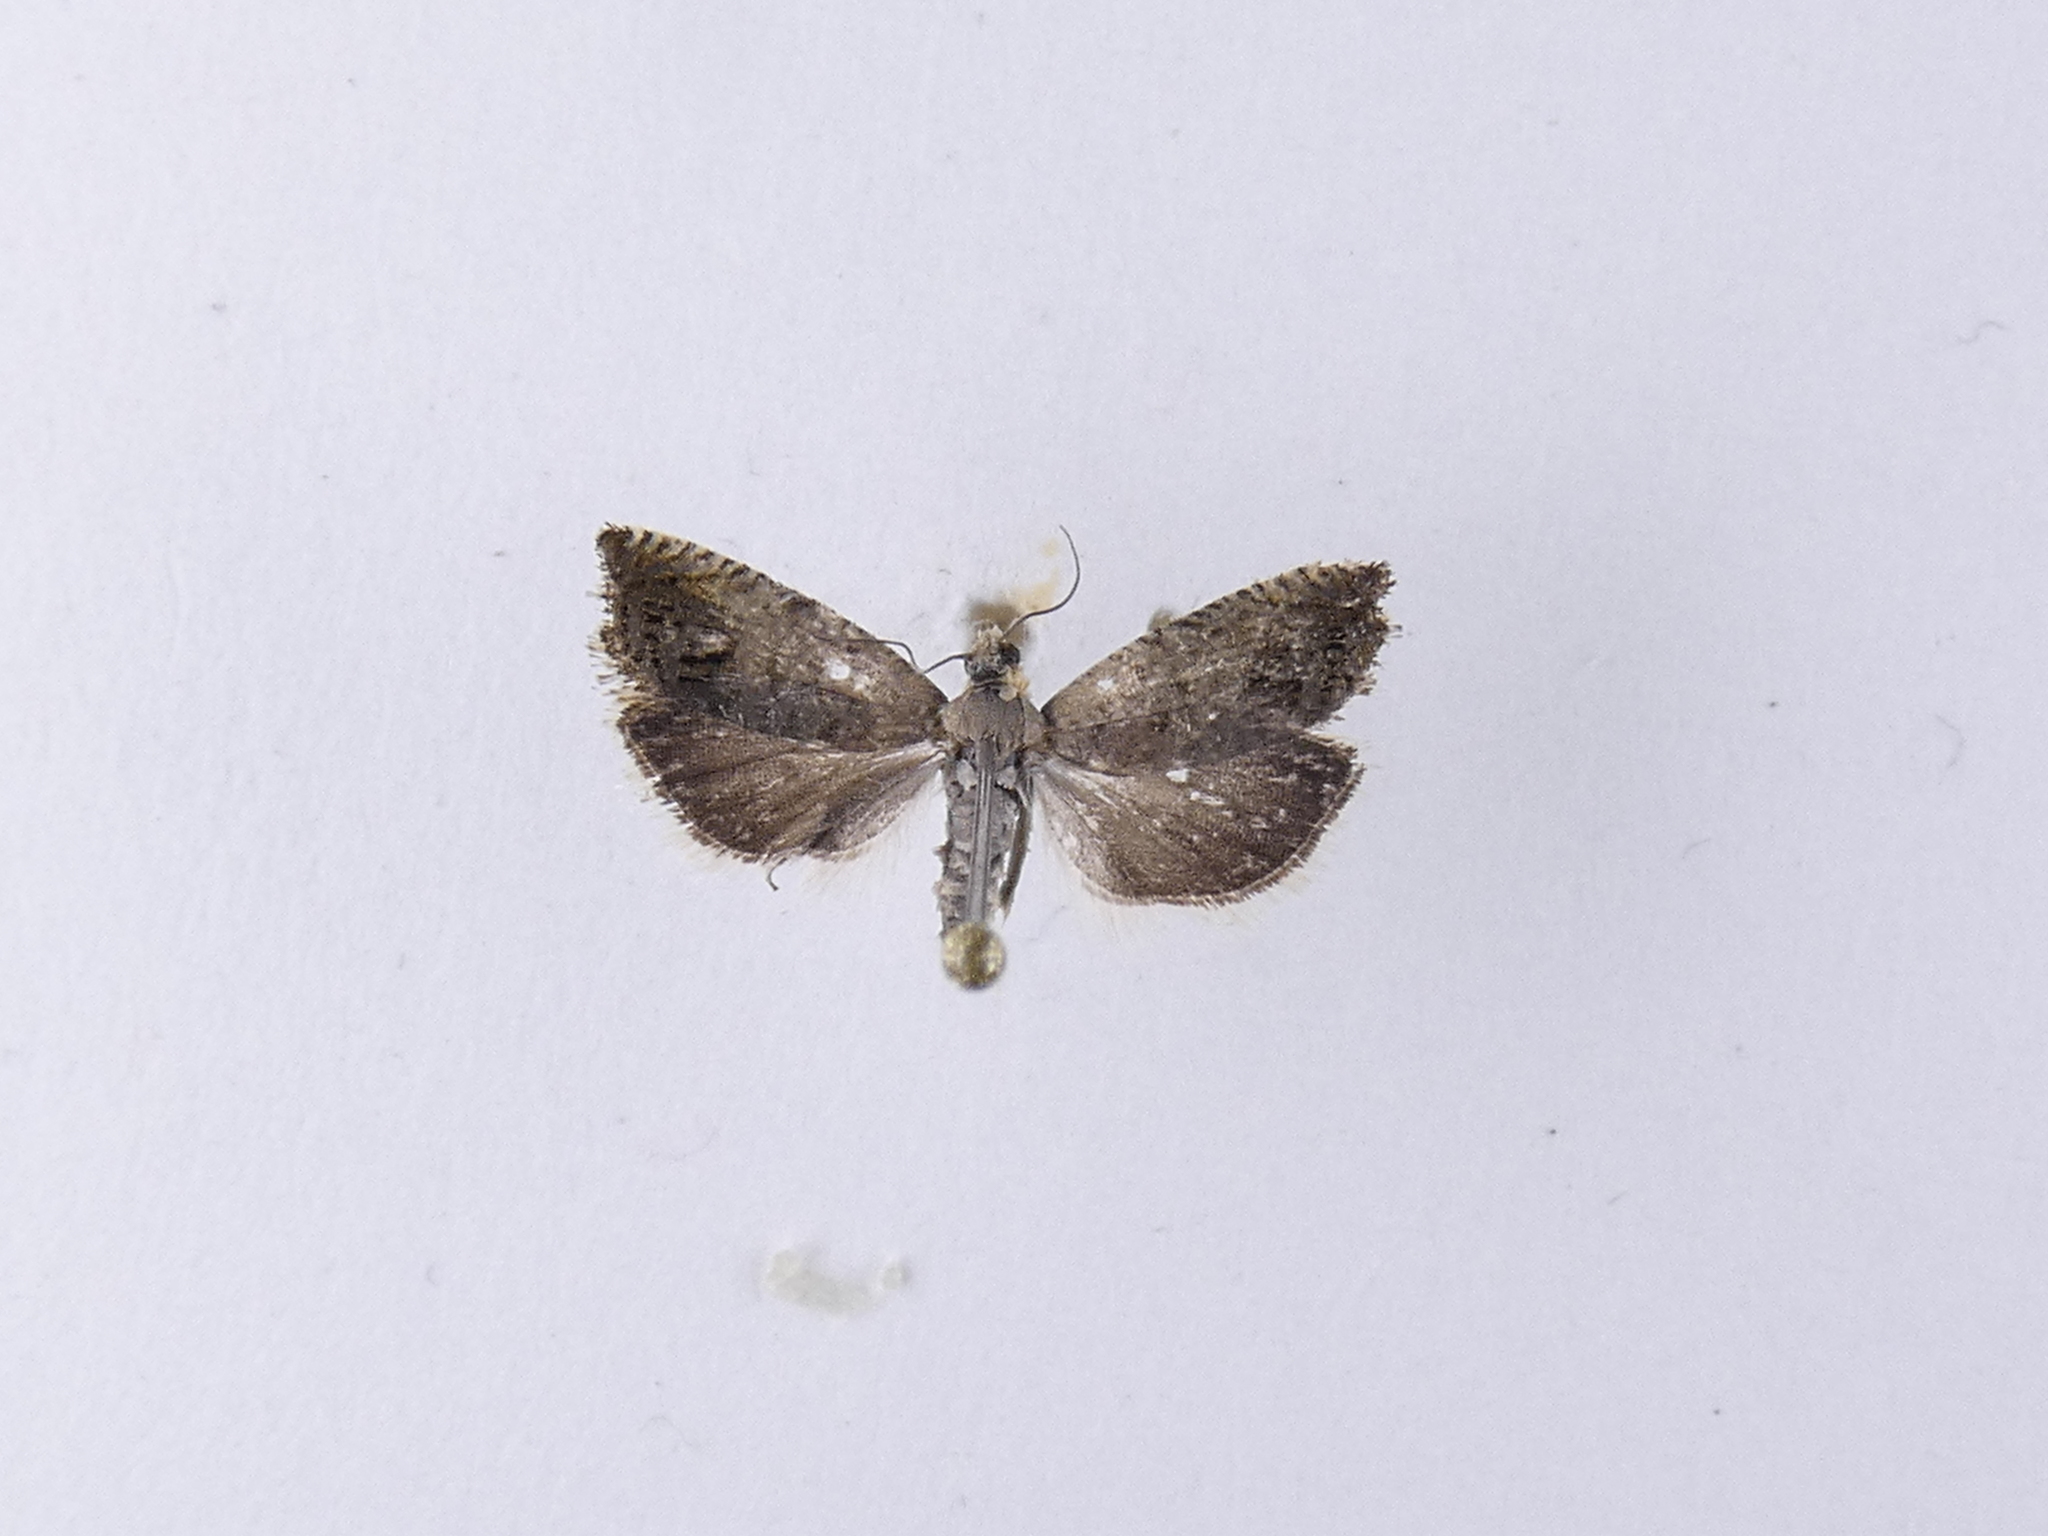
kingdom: Animalia
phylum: Arthropoda
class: Insecta
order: Lepidoptera
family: Tortricidae
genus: Cydia
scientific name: Cydia succedana
